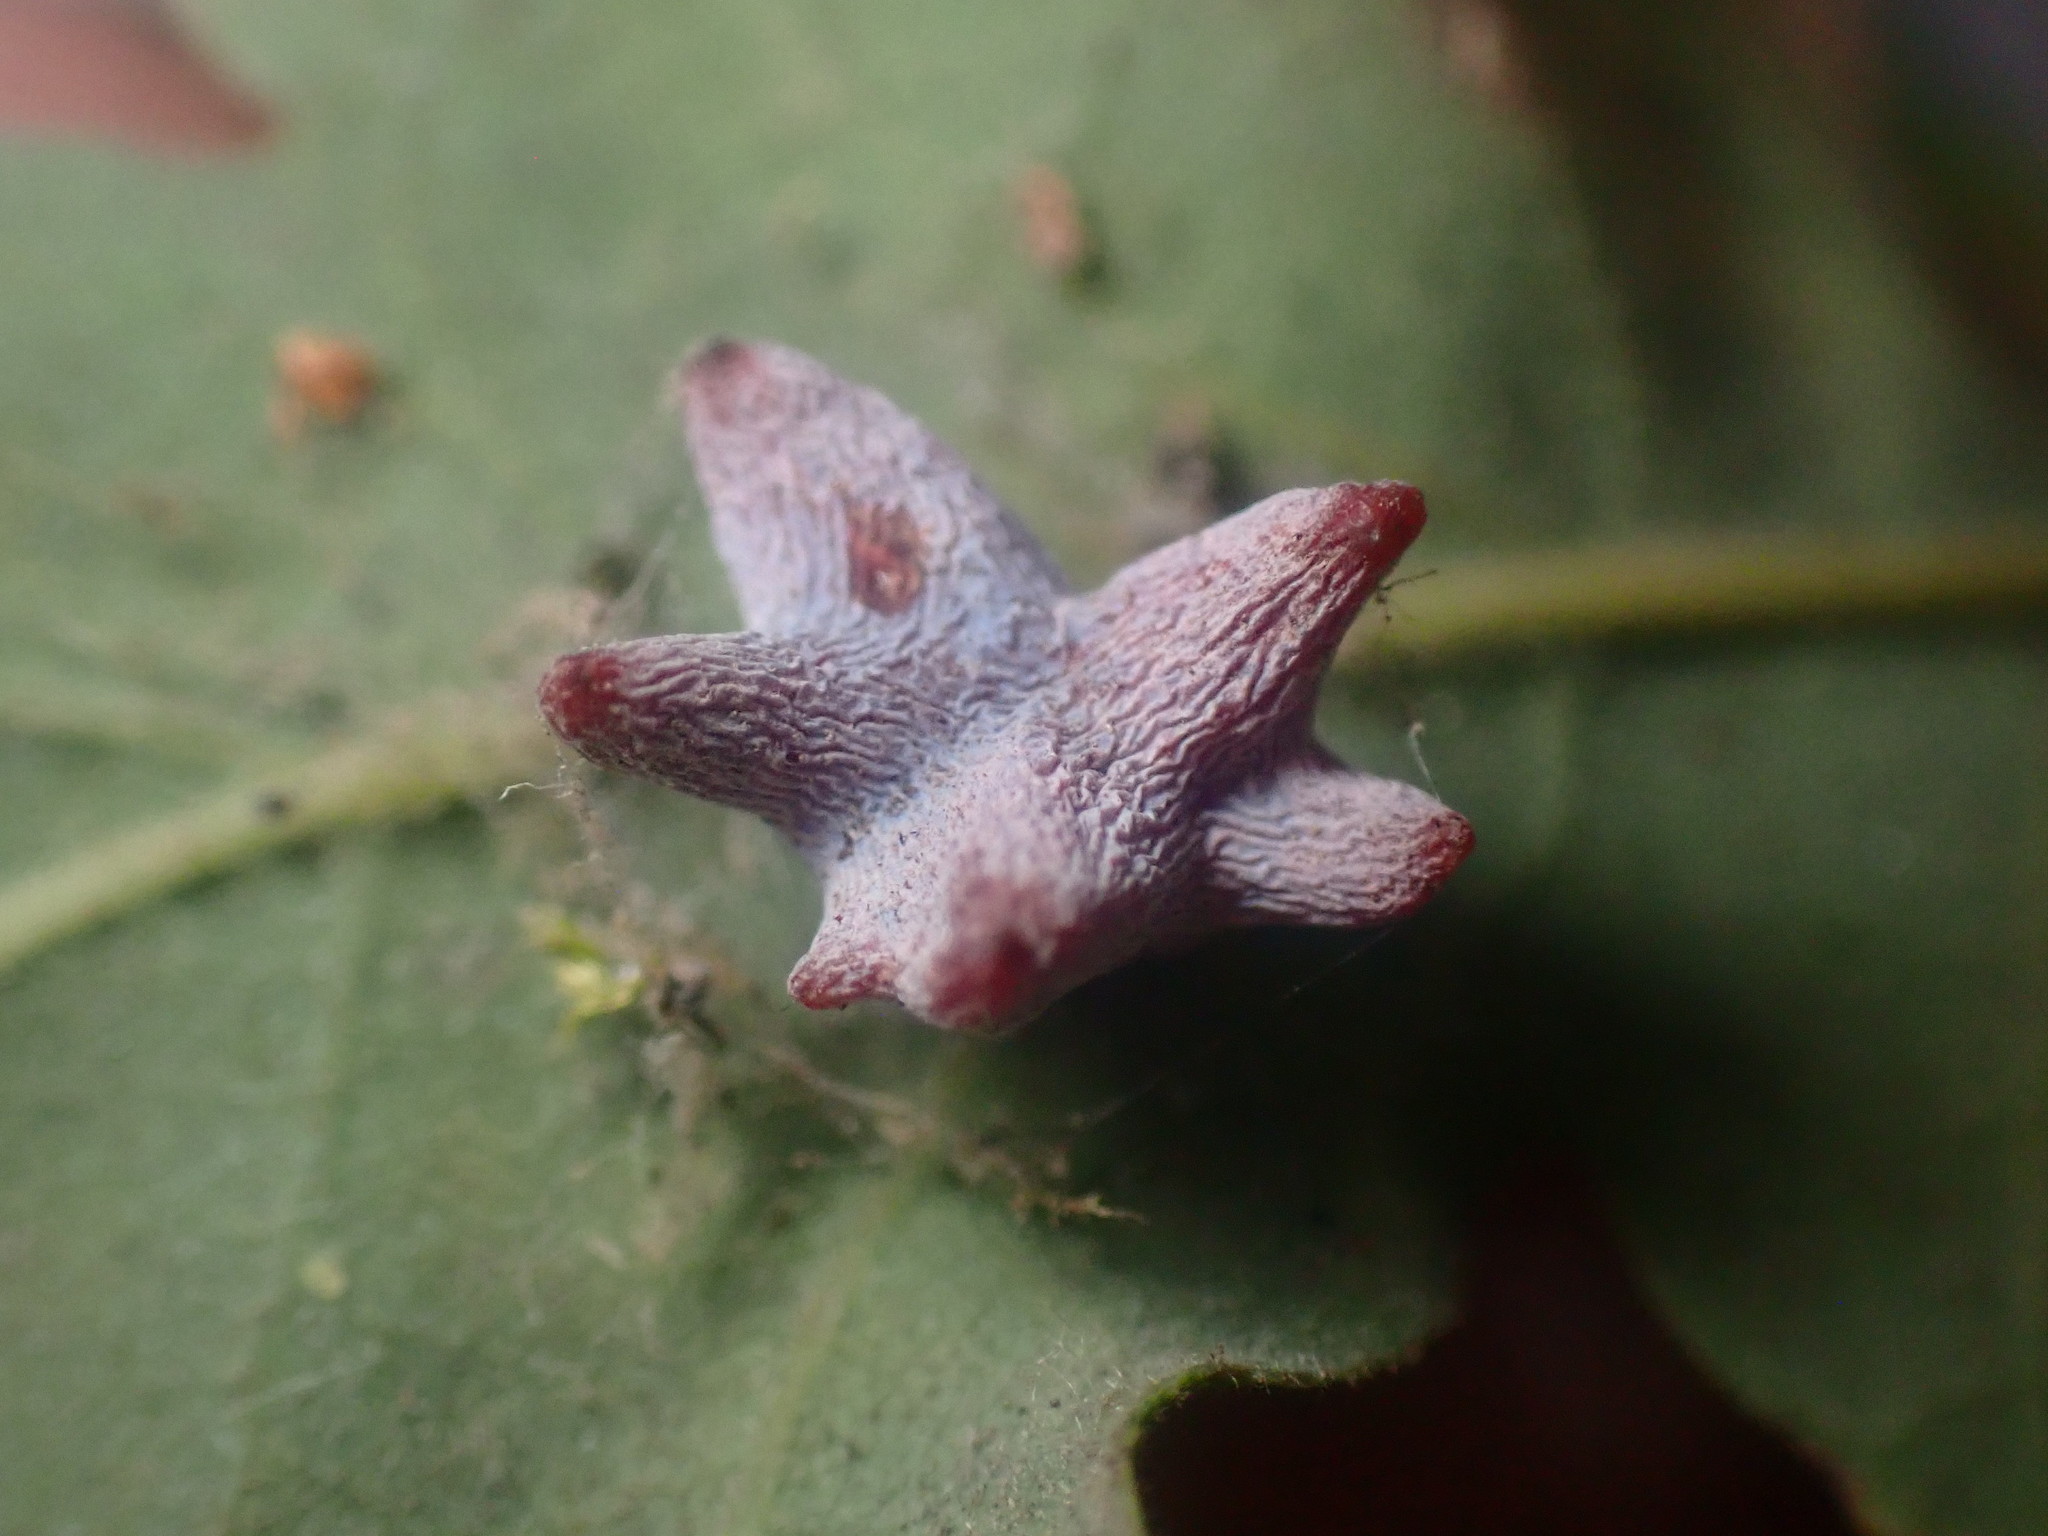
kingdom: Animalia
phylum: Arthropoda
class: Insecta
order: Hymenoptera
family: Cynipidae
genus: Cynips
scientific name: Cynips douglasi
